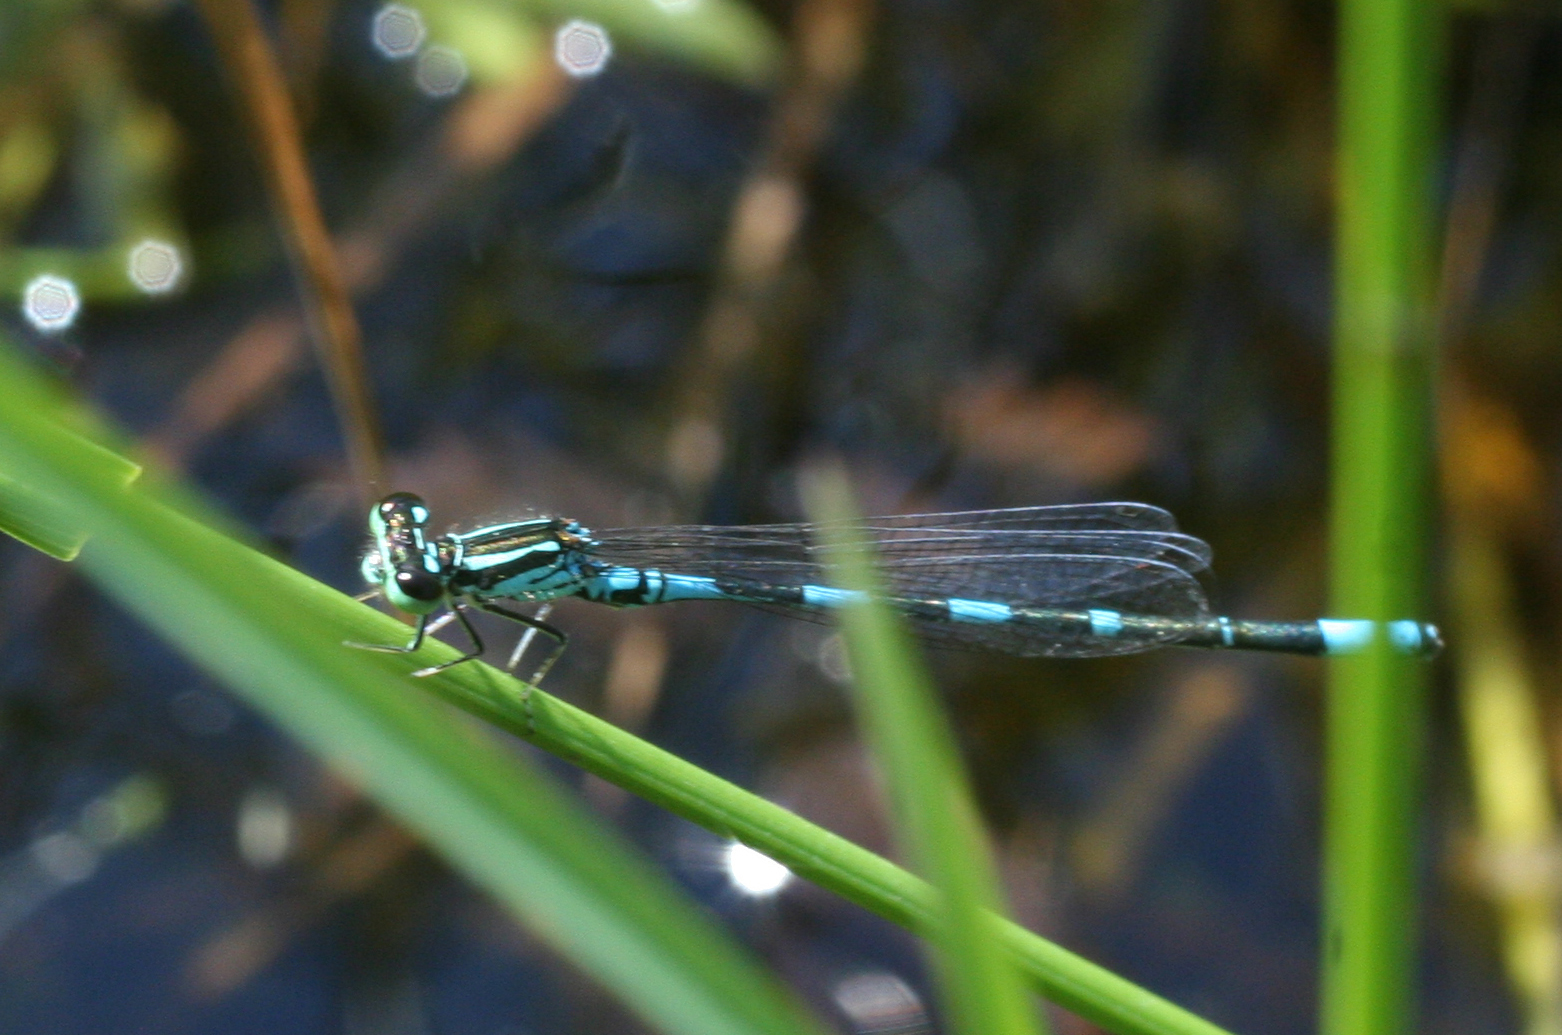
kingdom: Animalia
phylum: Arthropoda
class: Insecta
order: Odonata
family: Coenagrionidae
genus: Coenagrion
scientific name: Coenagrion johanssoni
